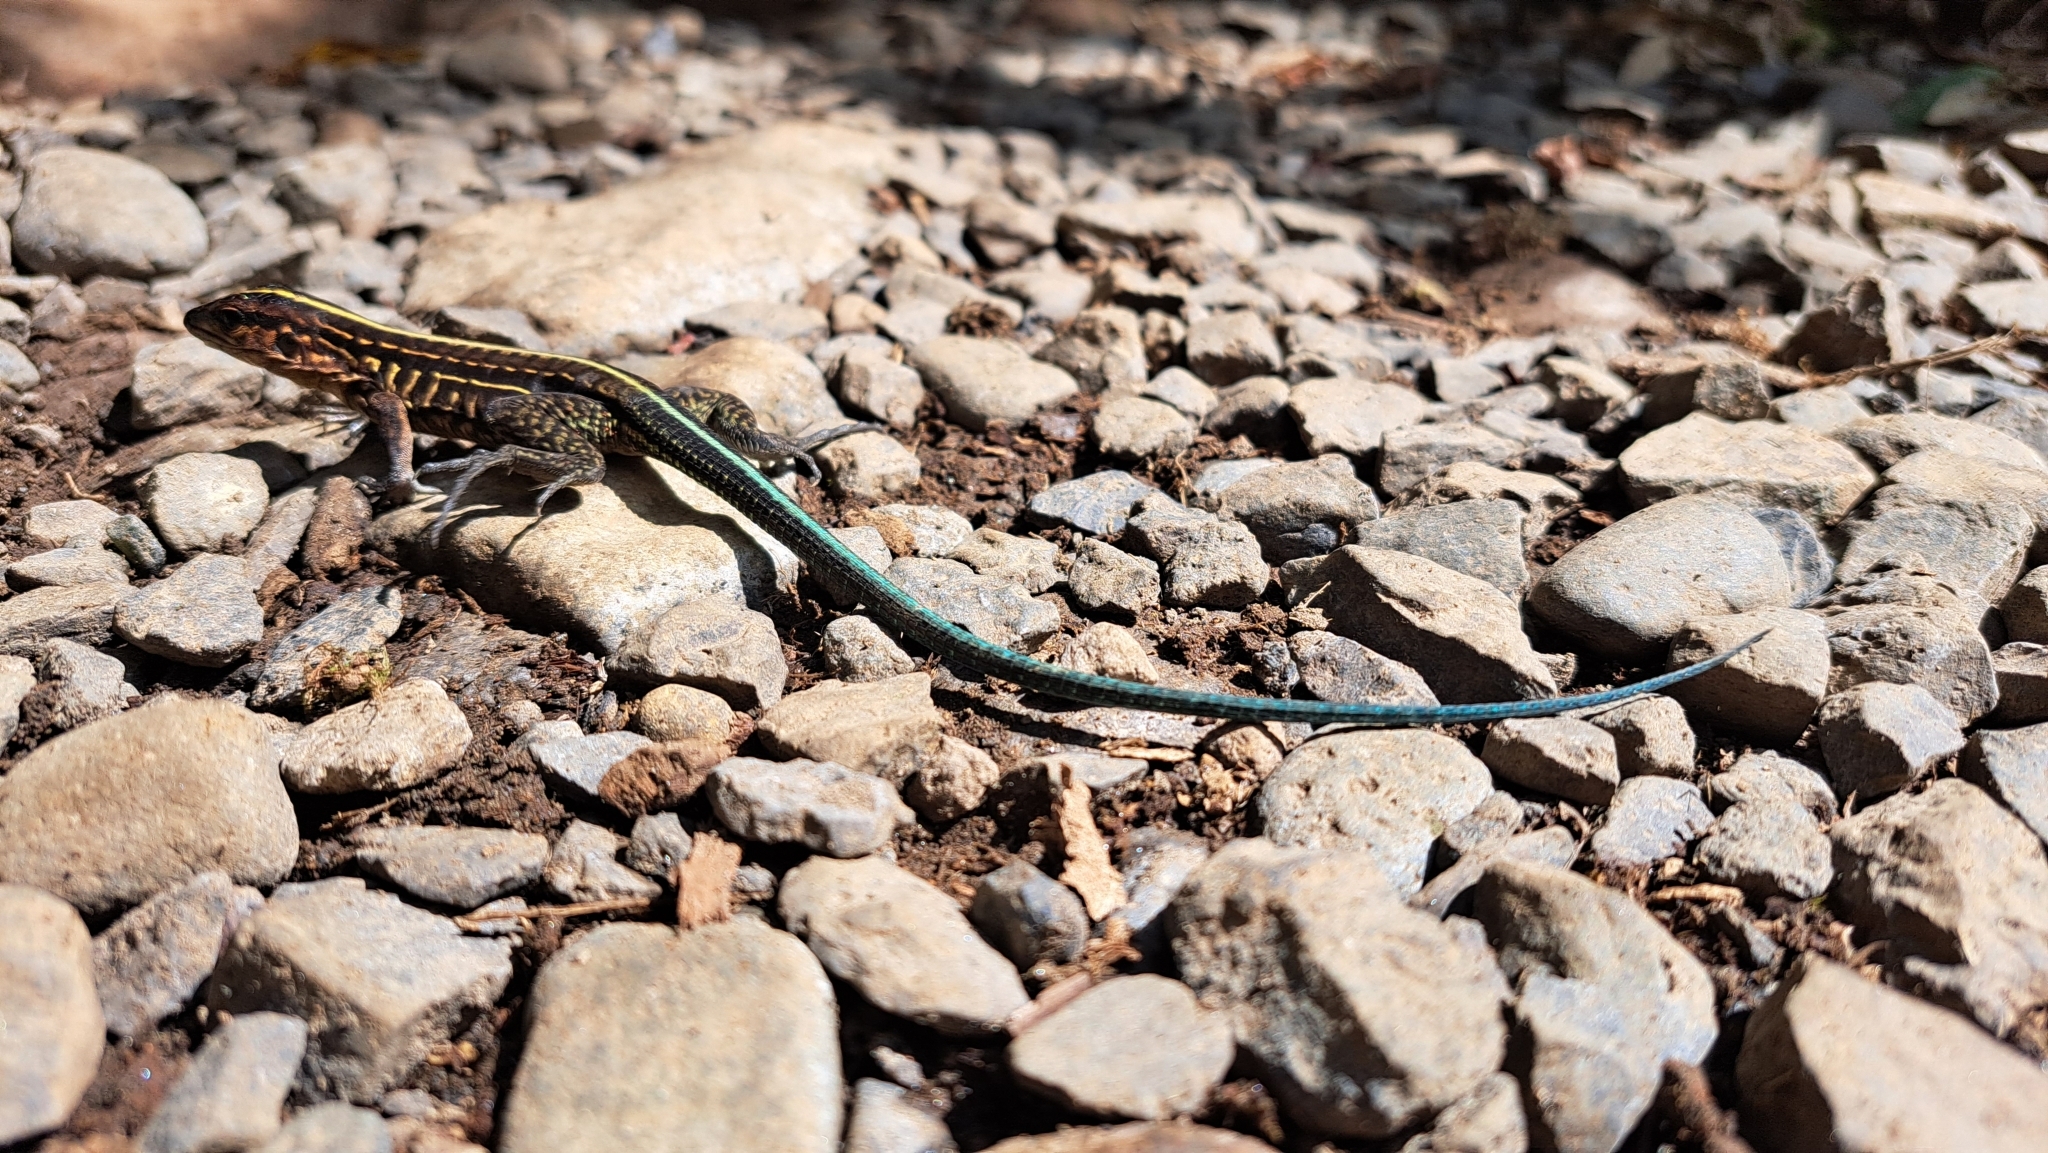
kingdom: Animalia
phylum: Chordata
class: Squamata
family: Teiidae
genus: Holcosus
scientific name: Holcosus festivus
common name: Middle american ameiva
